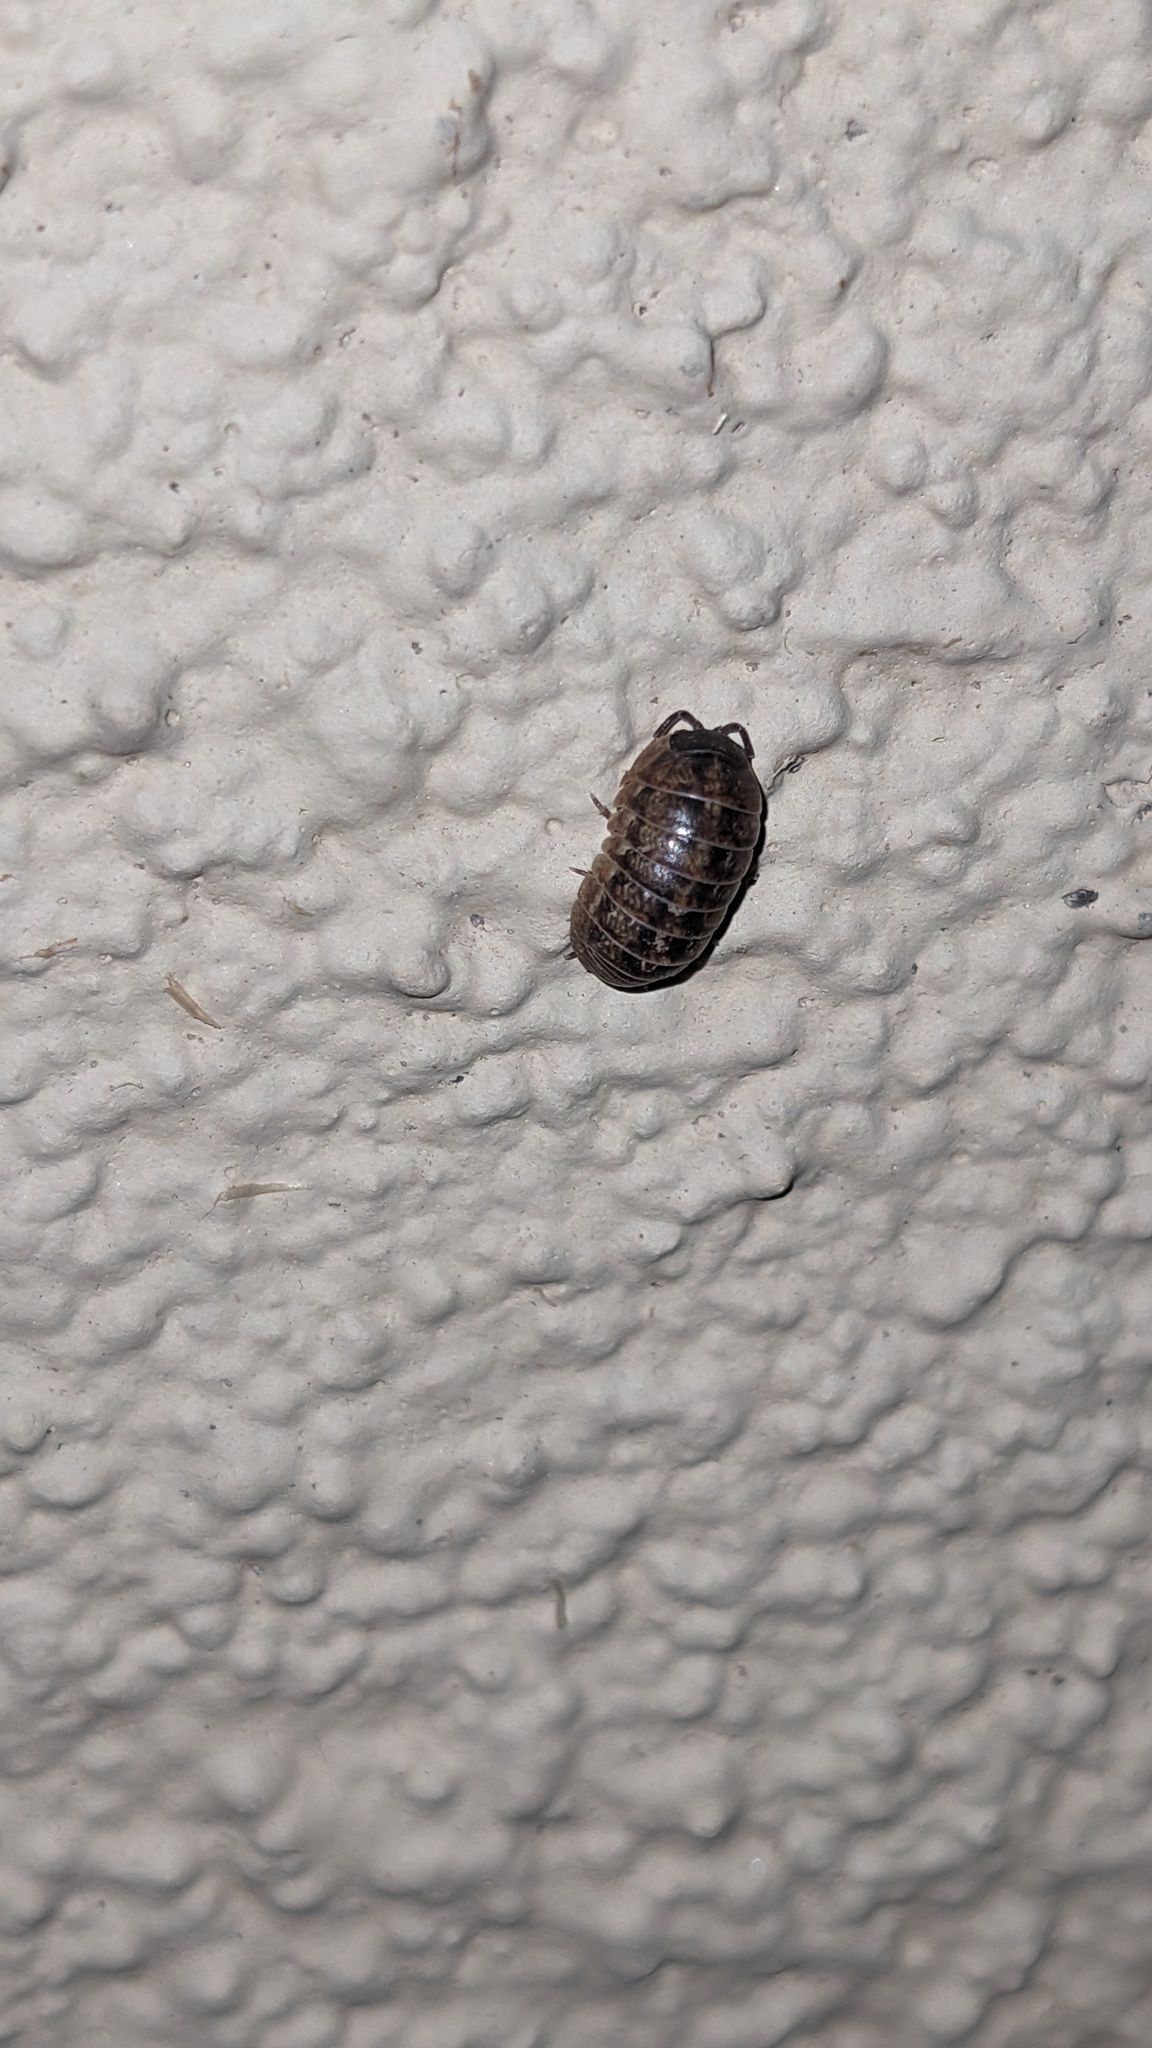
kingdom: Animalia
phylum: Arthropoda
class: Malacostraca
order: Isopoda
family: Armadillidiidae
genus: Armadillidium
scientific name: Armadillidium vulgare
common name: Common pill woodlouse
